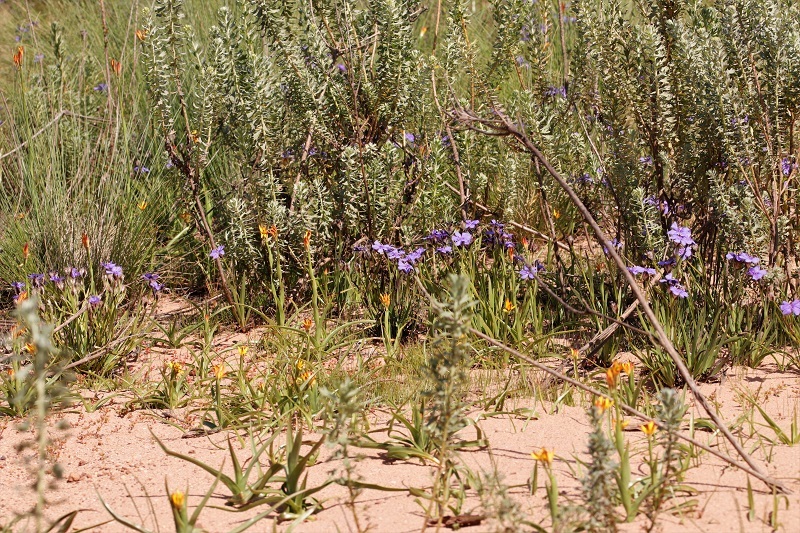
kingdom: Plantae
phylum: Tracheophyta
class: Liliopsida
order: Liliales
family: Colchicaceae
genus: Baeometra
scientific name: Baeometra uniflora
